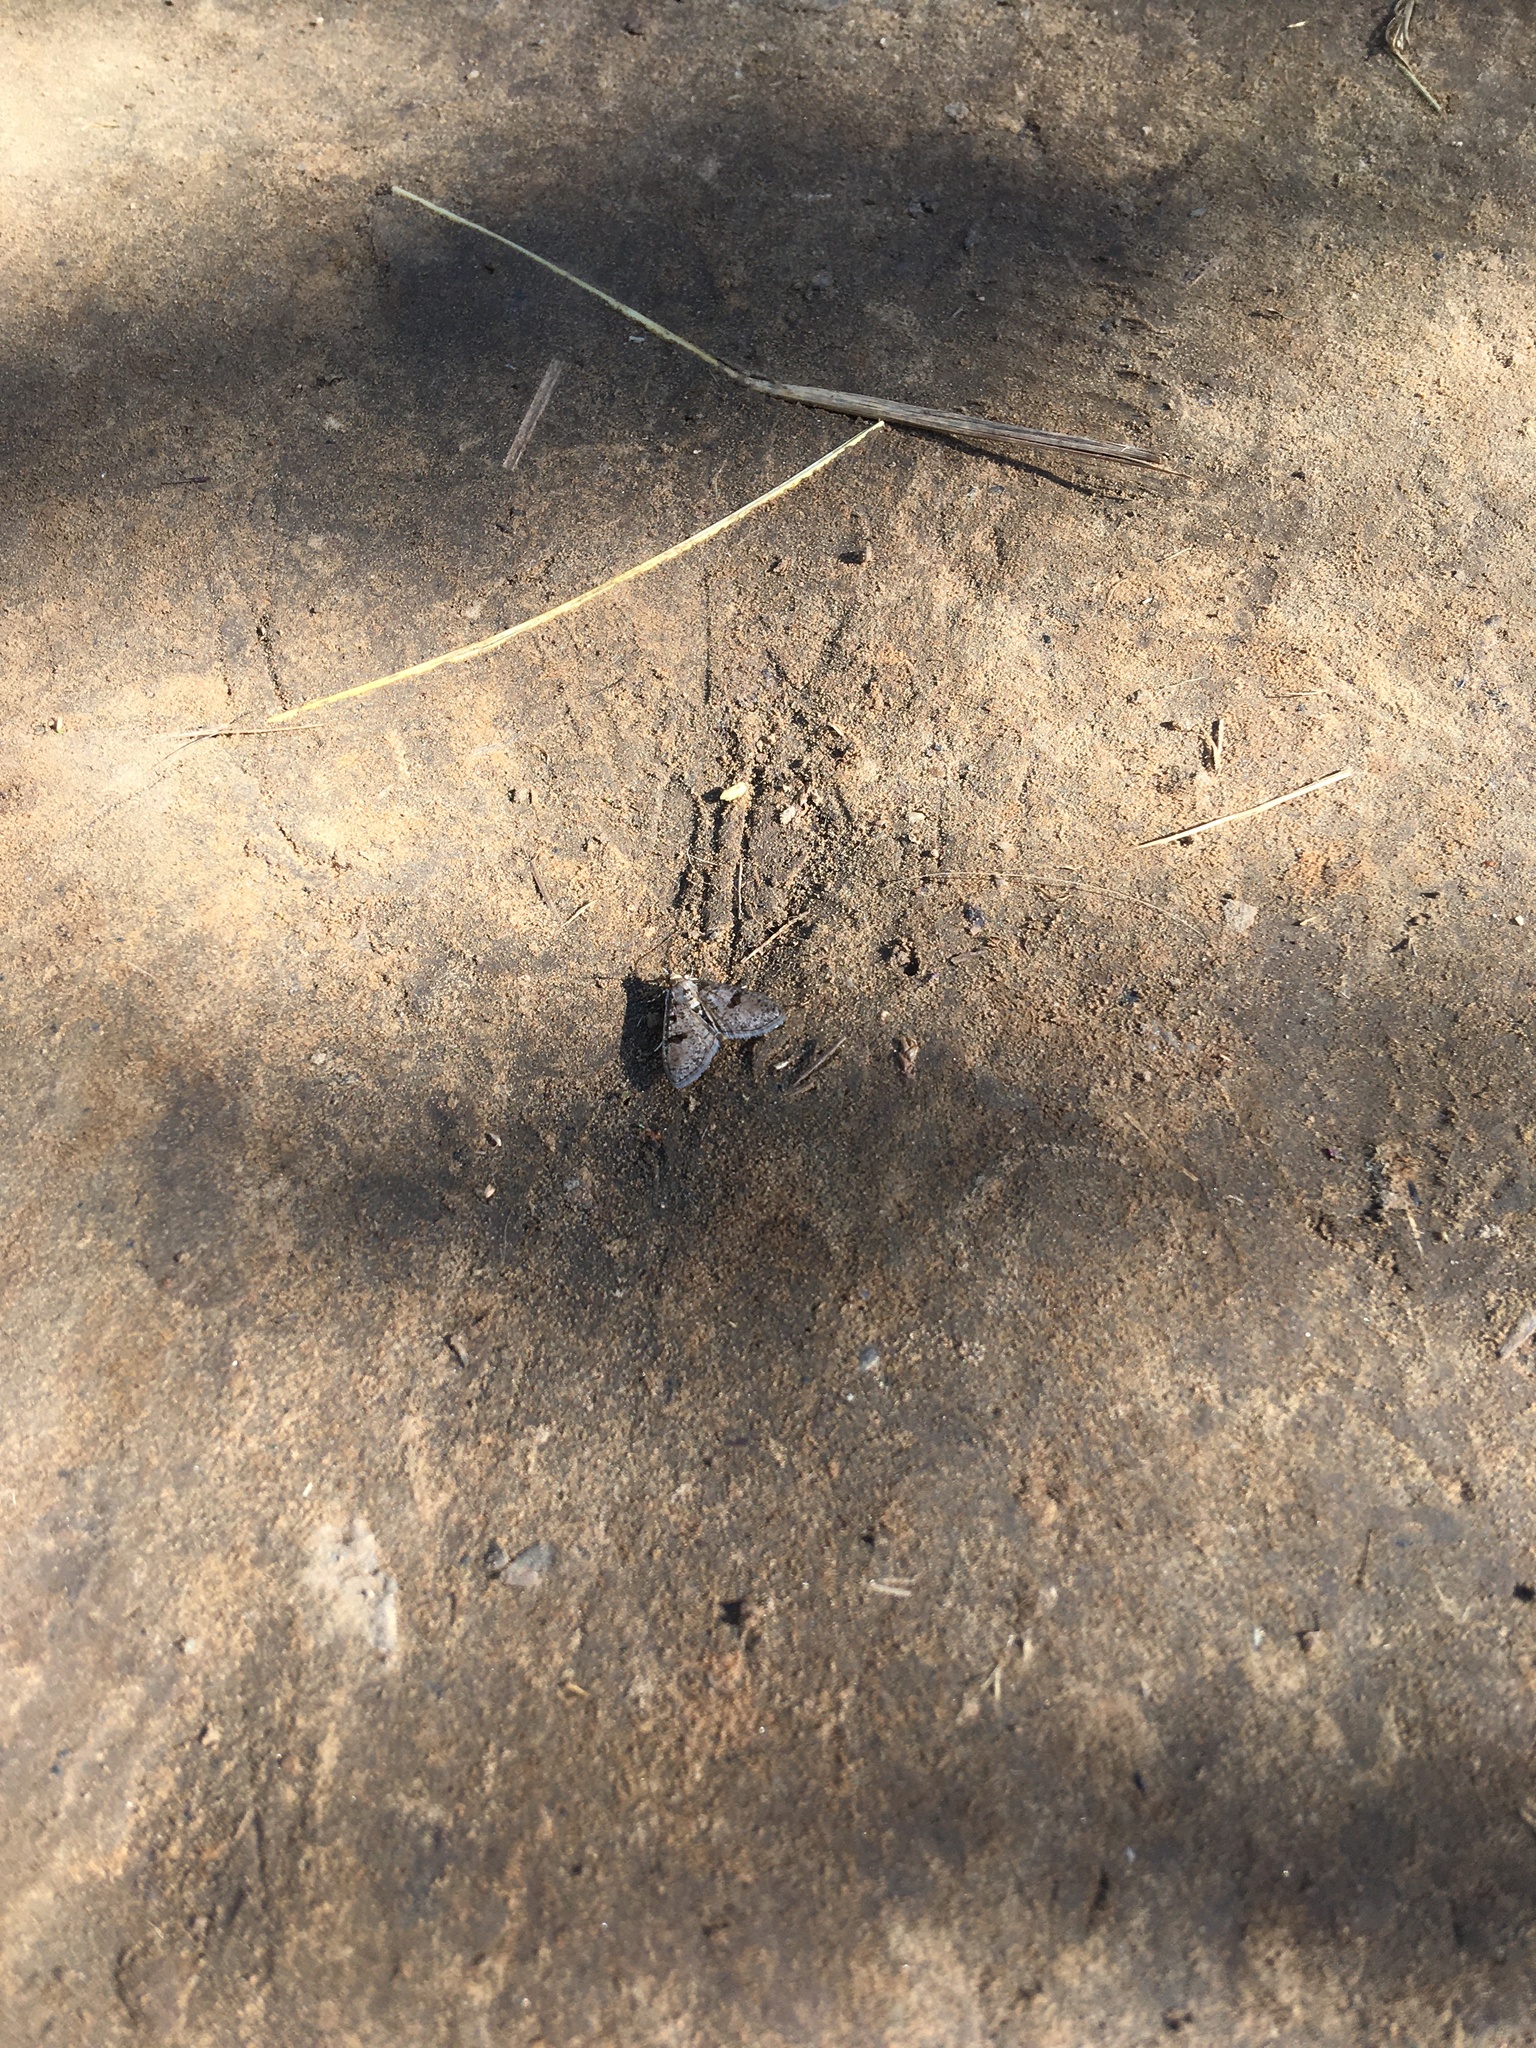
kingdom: Animalia
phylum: Arthropoda
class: Insecta
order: Lepidoptera
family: Crambidae
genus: Palpita
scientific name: Palpita magniferalis
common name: Splendid palpita moth
